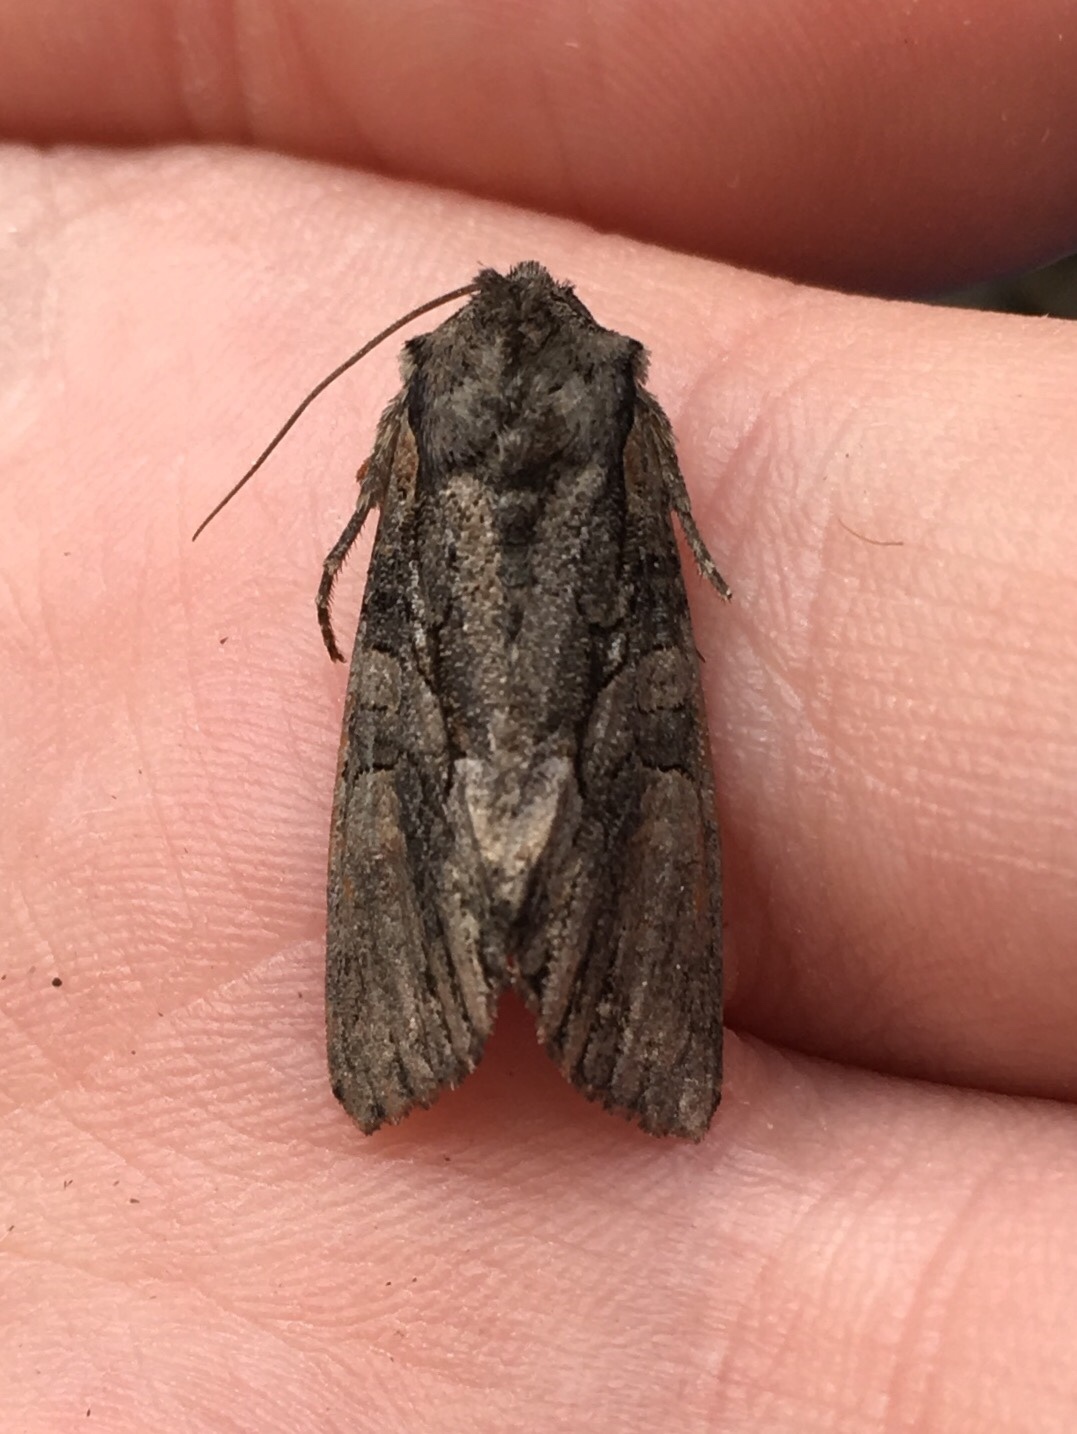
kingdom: Animalia
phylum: Arthropoda
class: Insecta
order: Lepidoptera
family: Noctuidae
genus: Lacanobia
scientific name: Lacanobia subjuncta
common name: Speckled cutworm moth
